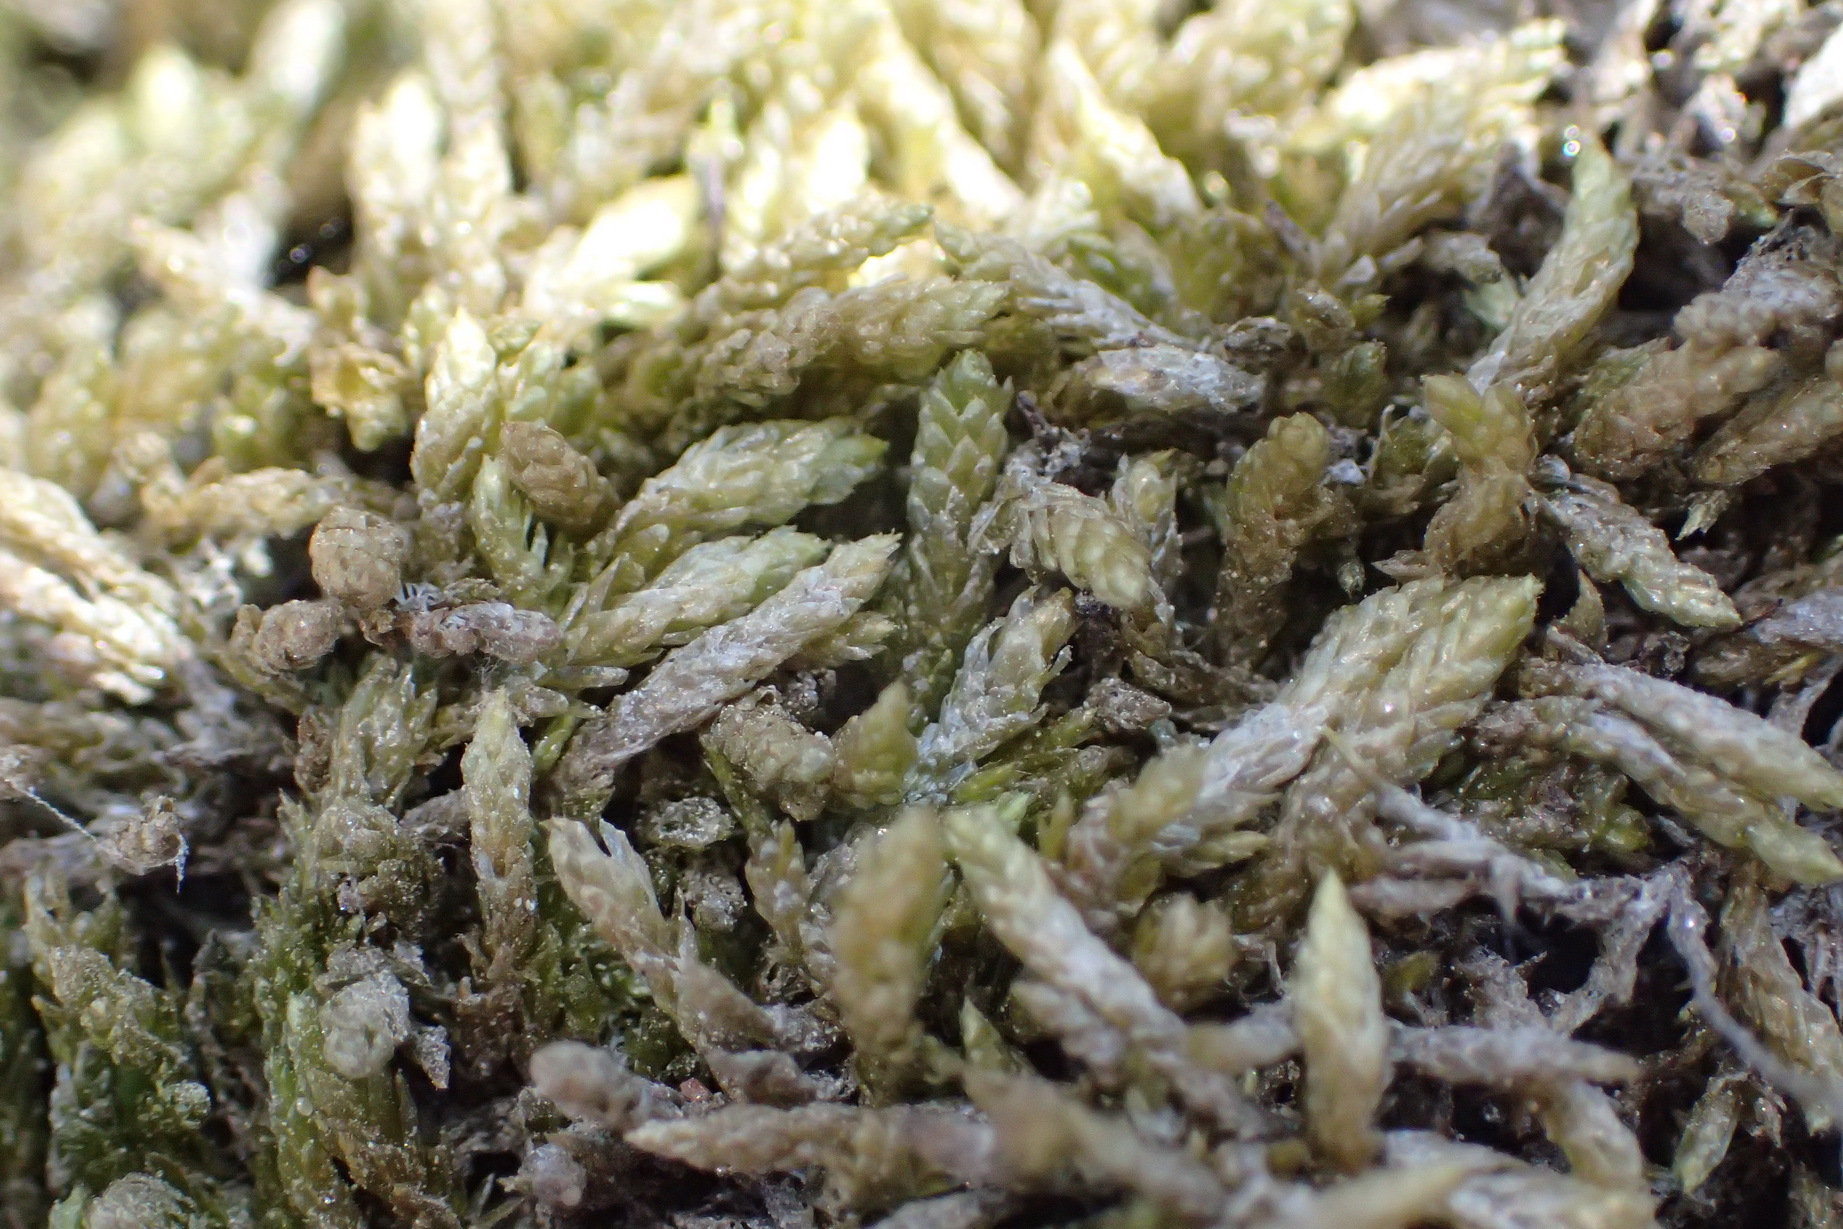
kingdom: Plantae
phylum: Bryophyta
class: Bryopsida
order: Bryales
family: Bryaceae
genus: Bryum
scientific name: Bryum argenteum
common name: Silver-moss
